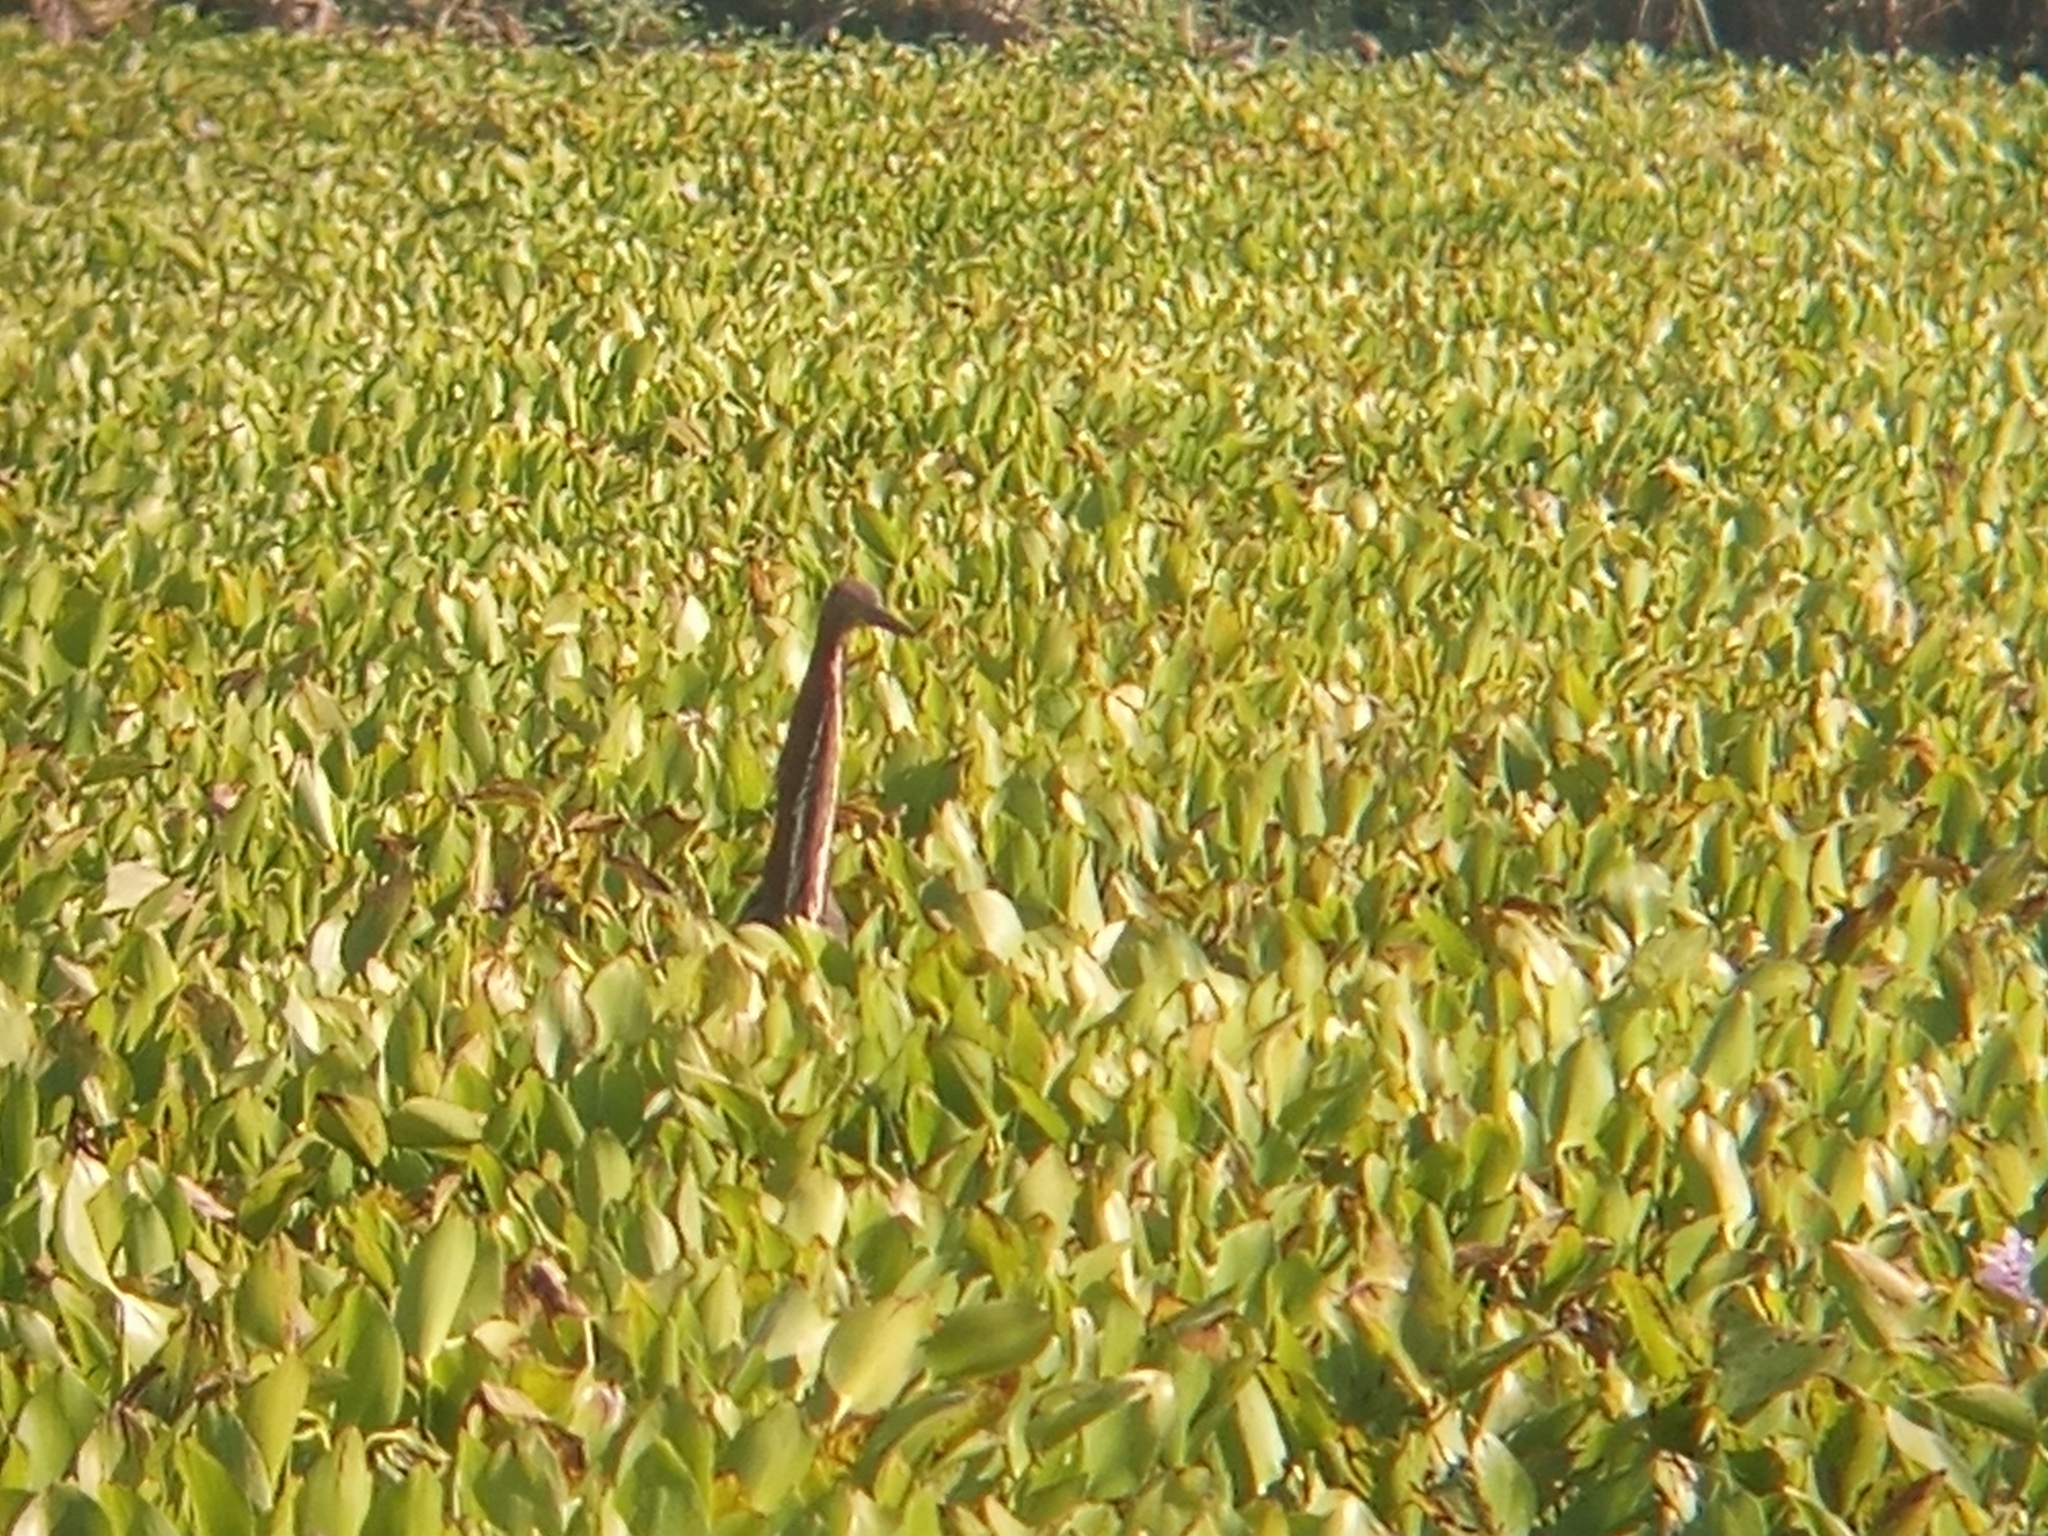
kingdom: Animalia
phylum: Chordata
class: Aves
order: Pelecaniformes
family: Ardeidae
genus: Tigrisoma
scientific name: Tigrisoma lineatum
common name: Rufescent tiger-heron
